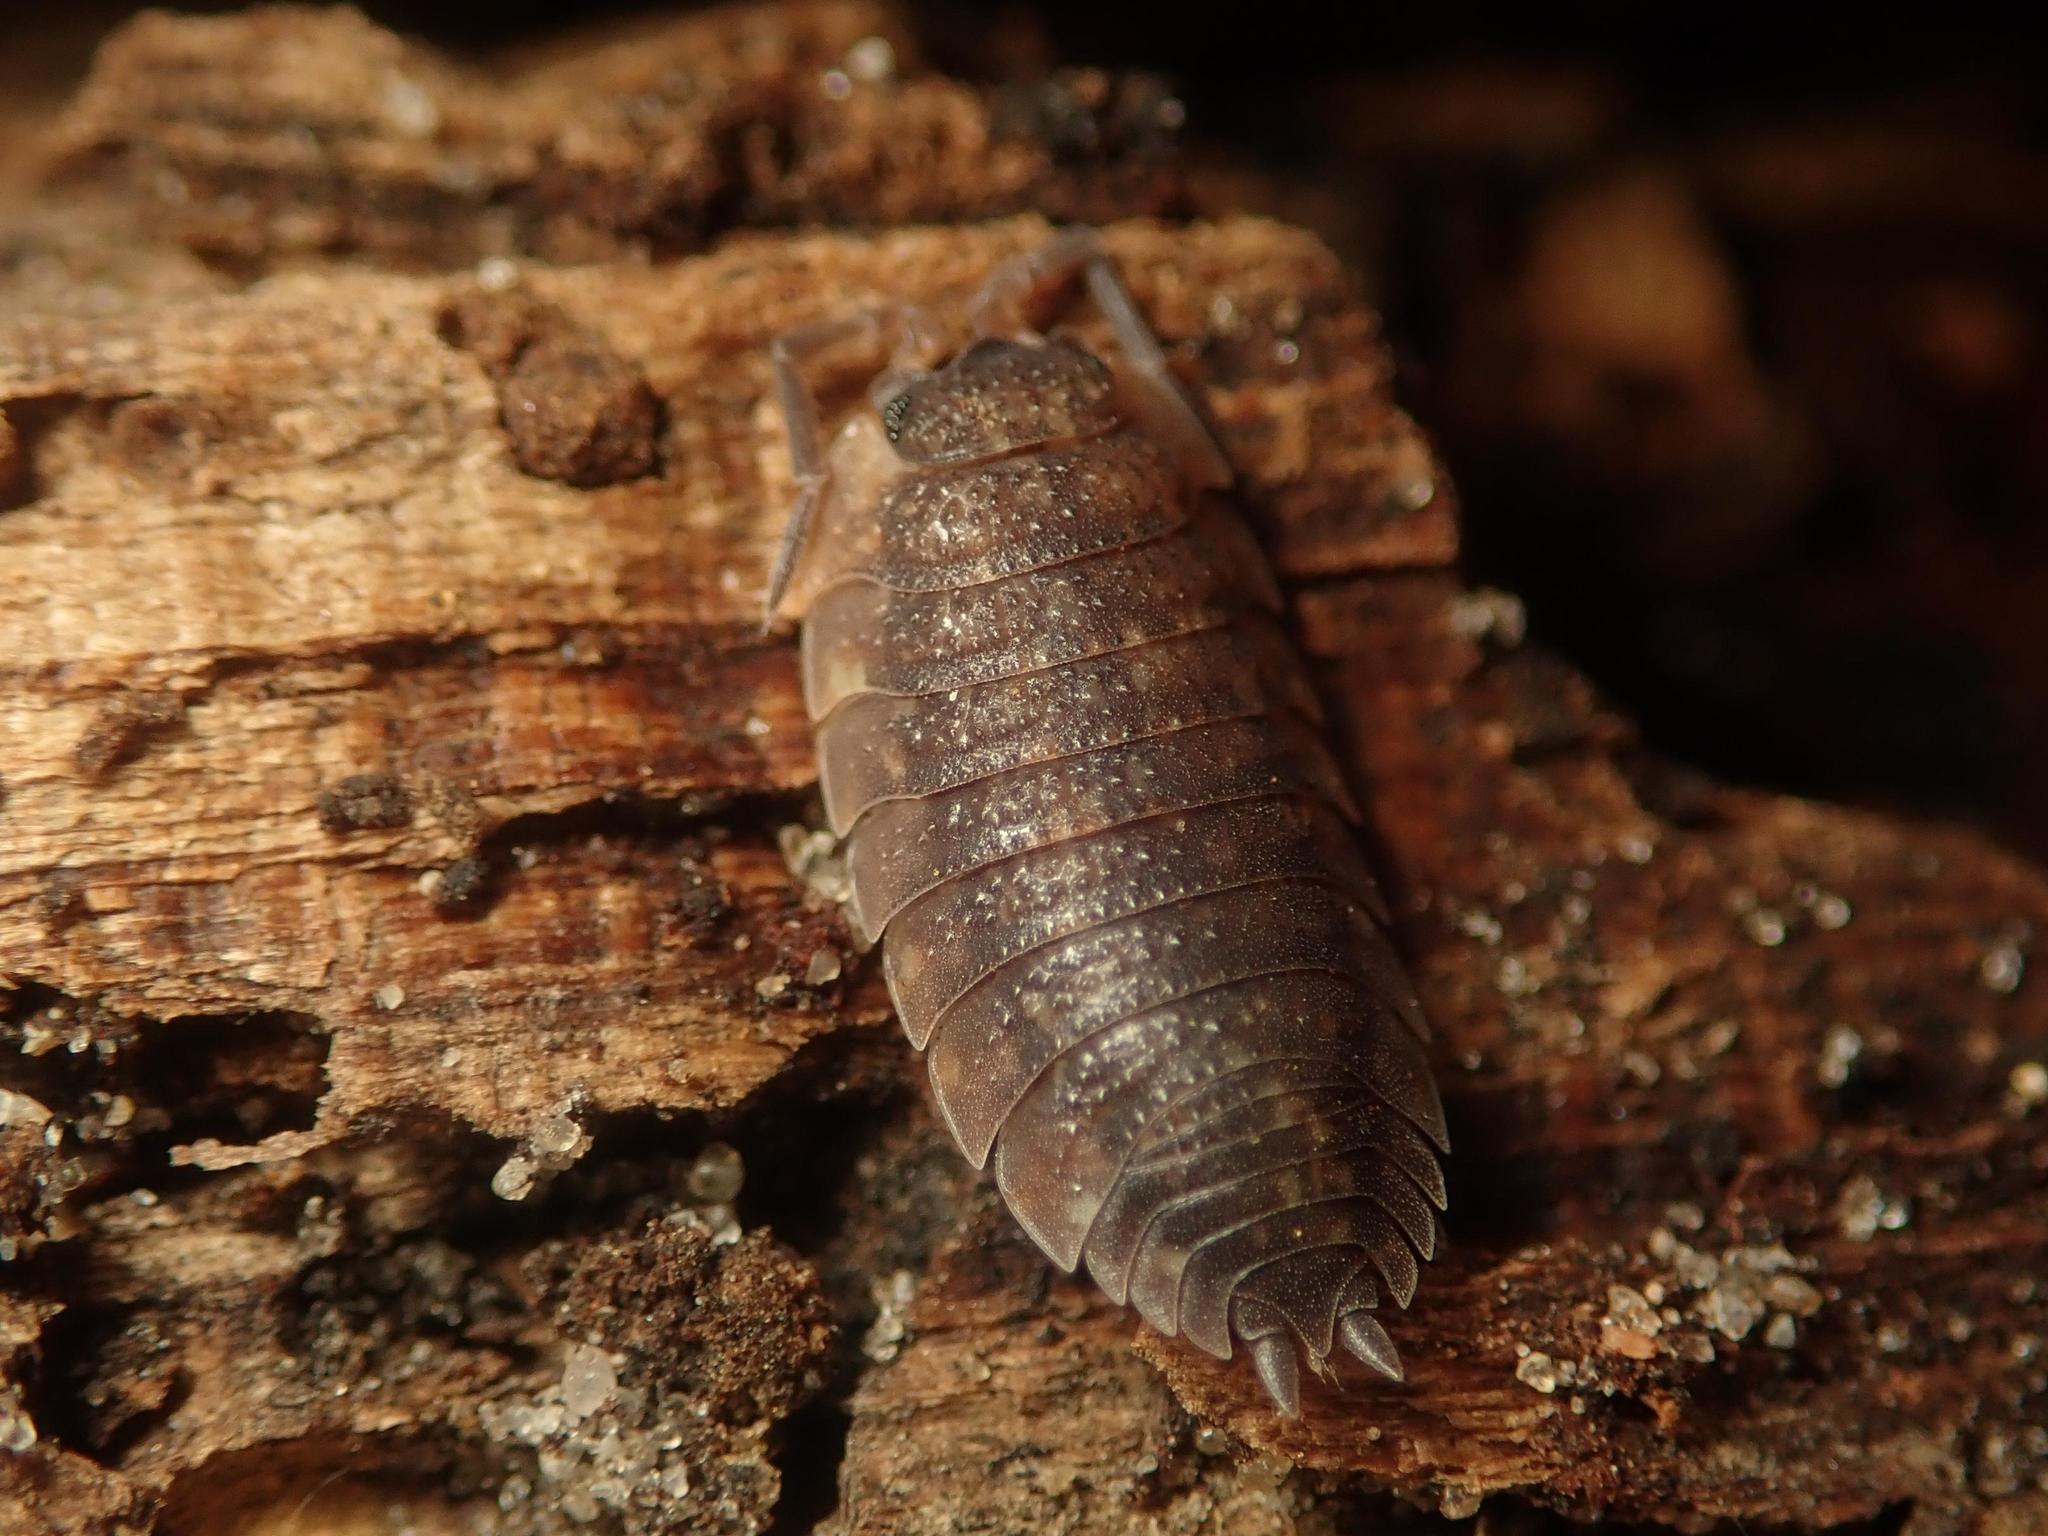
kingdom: Animalia
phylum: Arthropoda
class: Malacostraca
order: Isopoda
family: Porcellionidae
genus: Porcellio
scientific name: Porcellio scaber
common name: Common rough woodlouse
